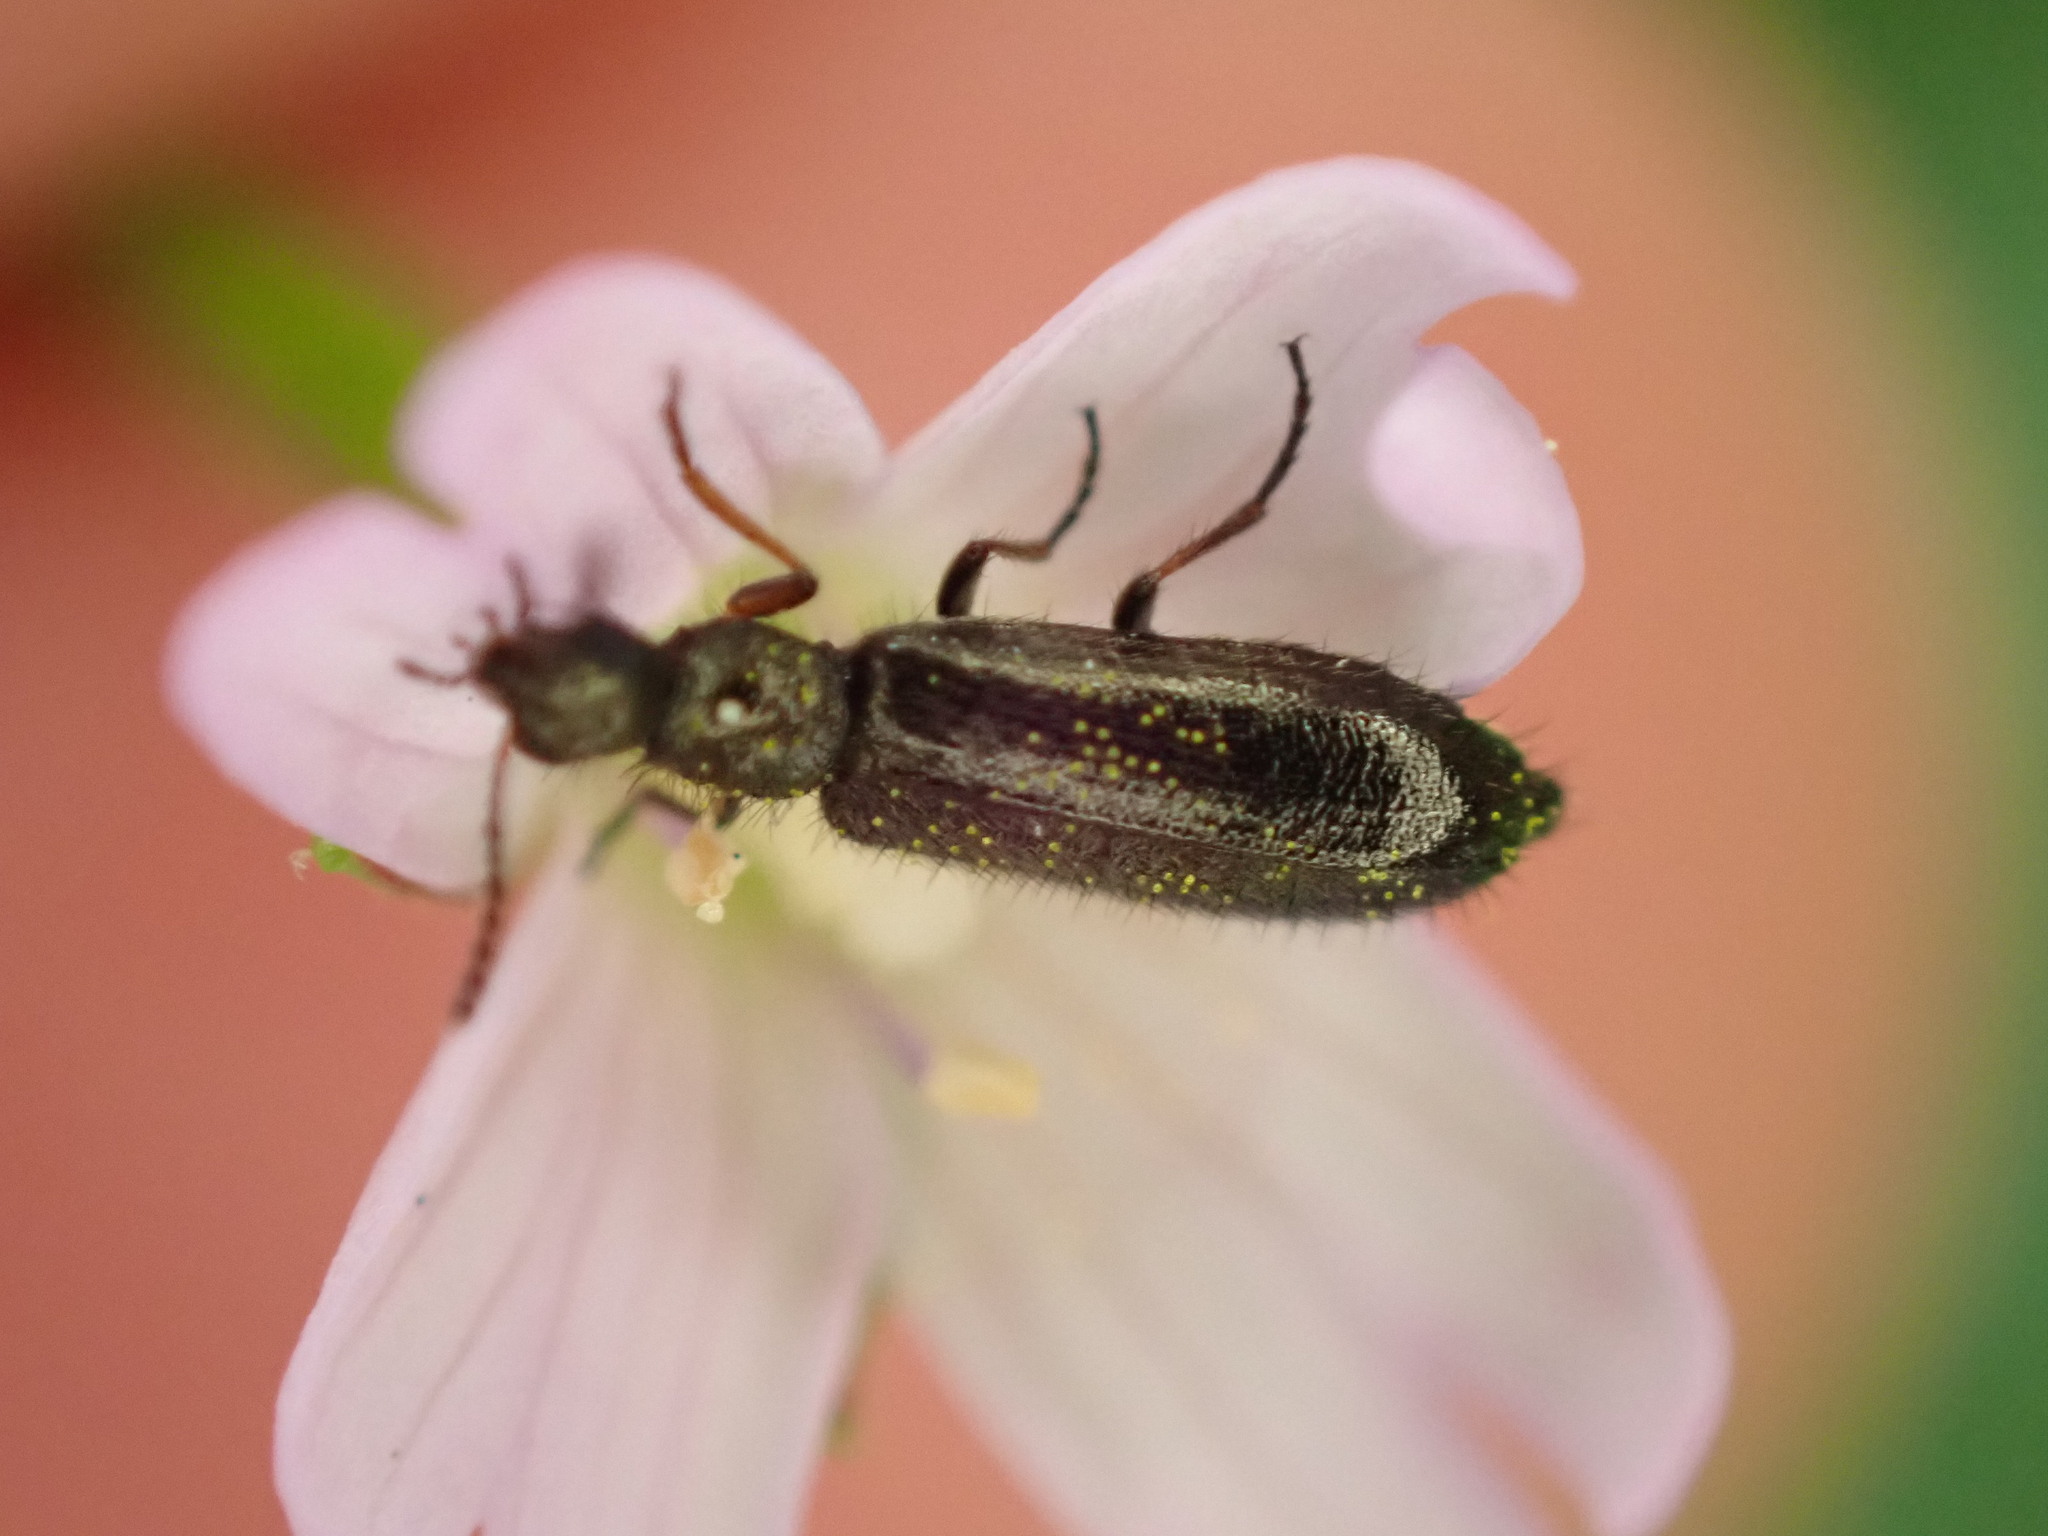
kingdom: Animalia
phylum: Arthropoda
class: Insecta
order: Coleoptera
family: Melyridae
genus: Dasytes
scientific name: Dasytes plumbeus
